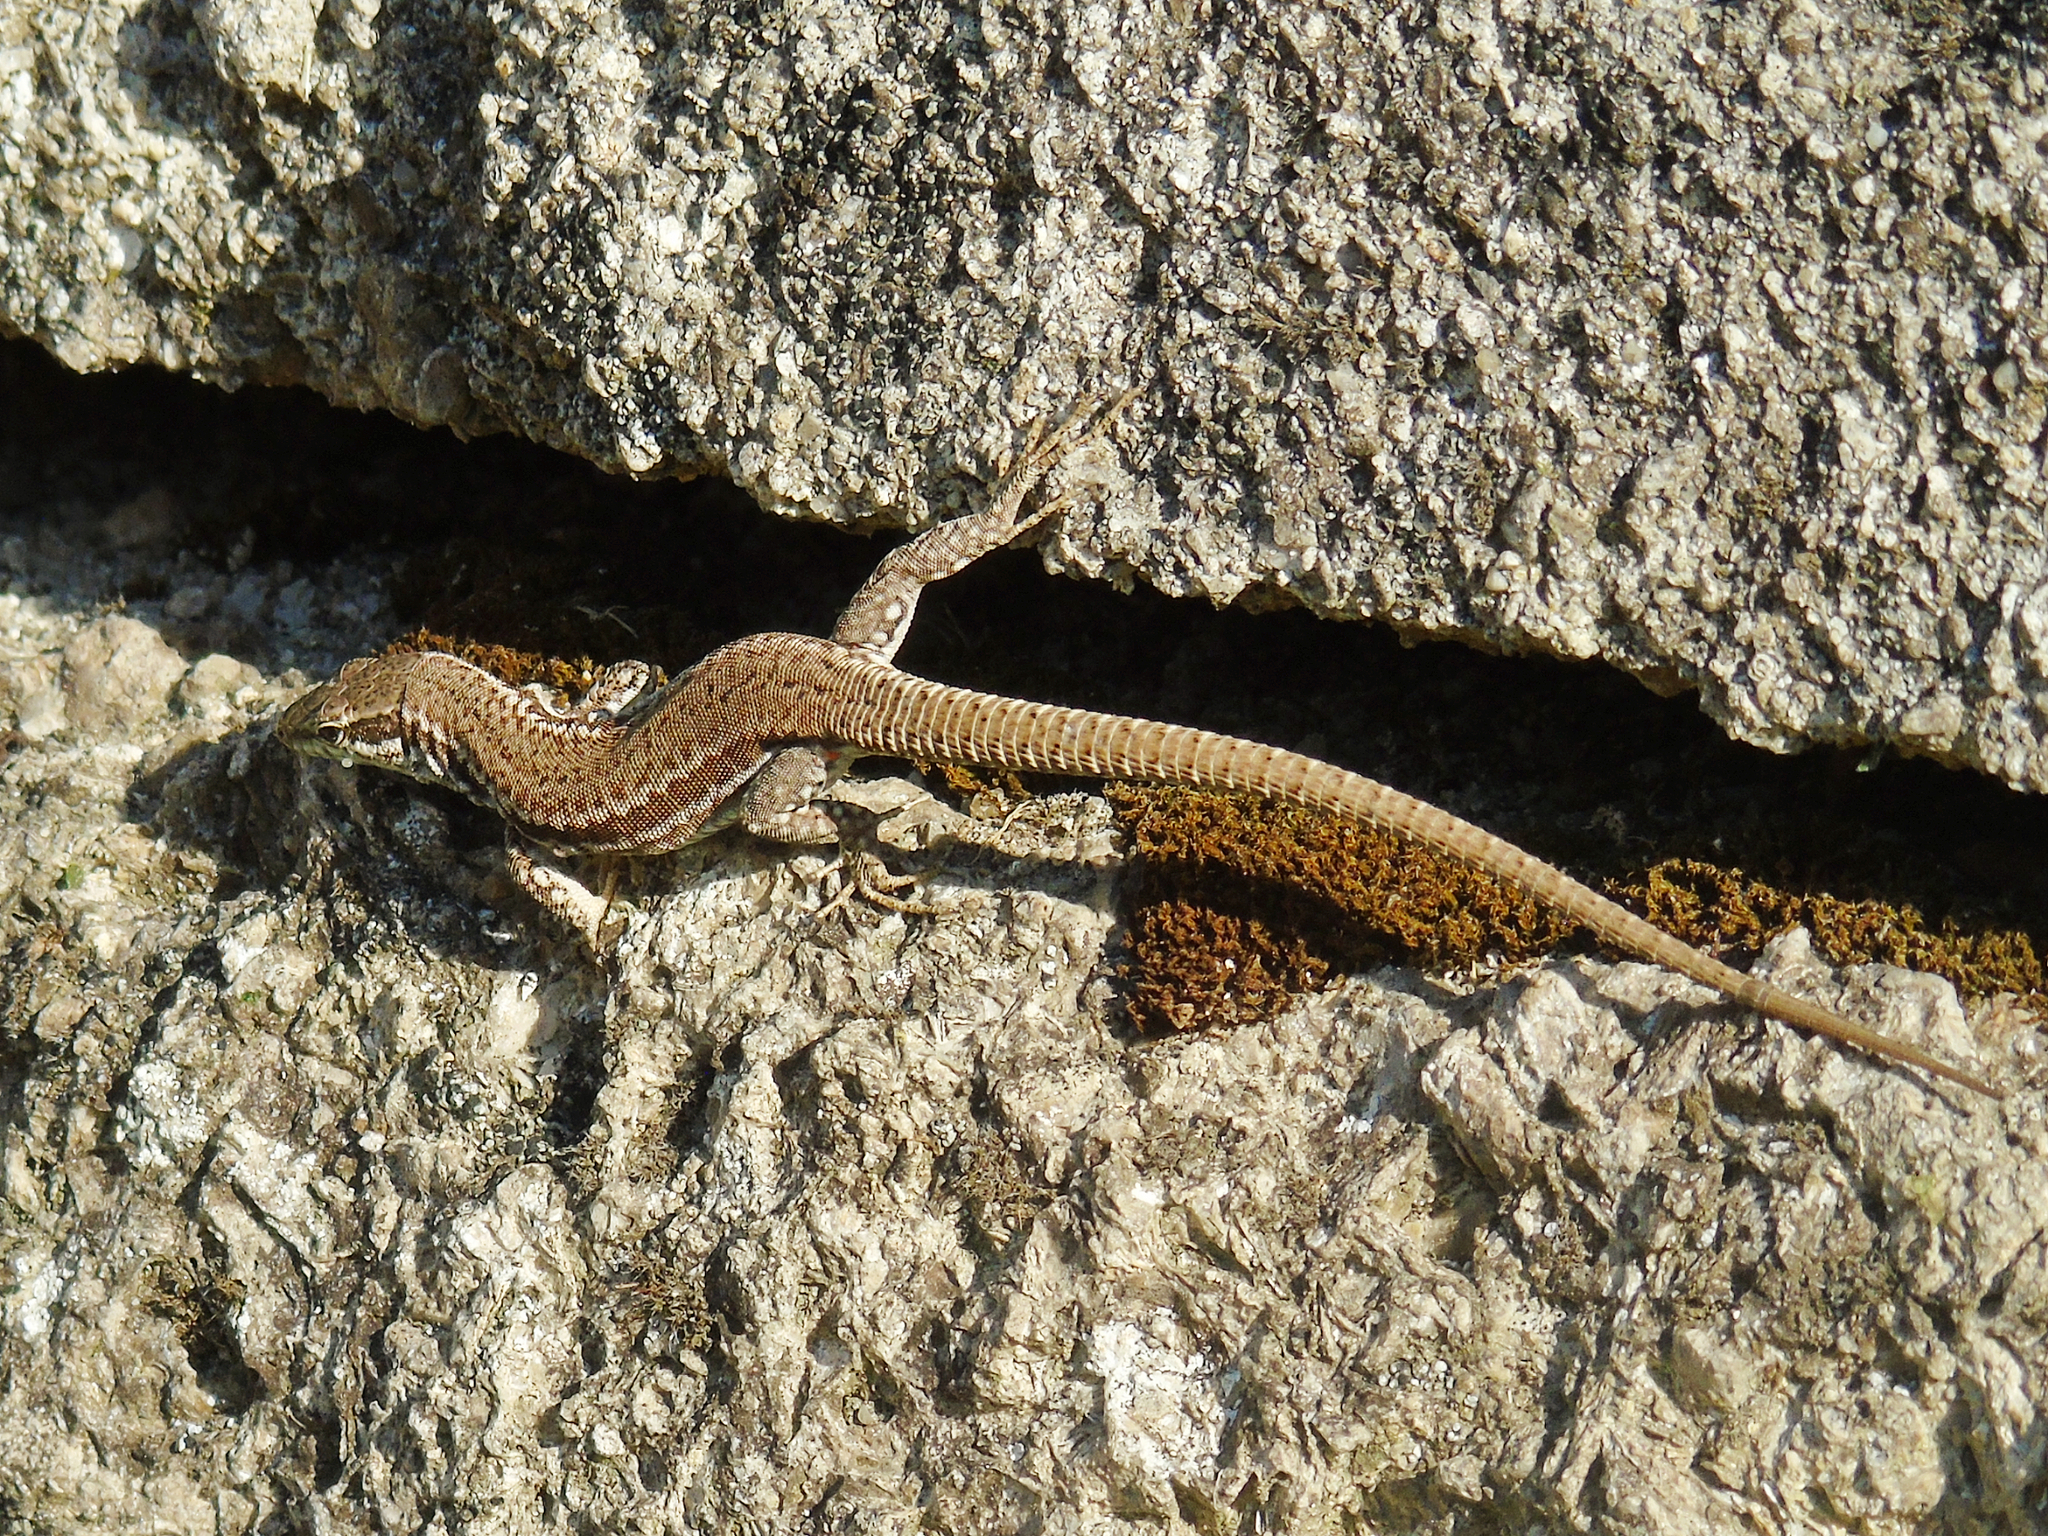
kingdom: Animalia
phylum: Chordata
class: Squamata
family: Lacertidae
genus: Podarcis
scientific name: Podarcis muralis
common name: Common wall lizard
